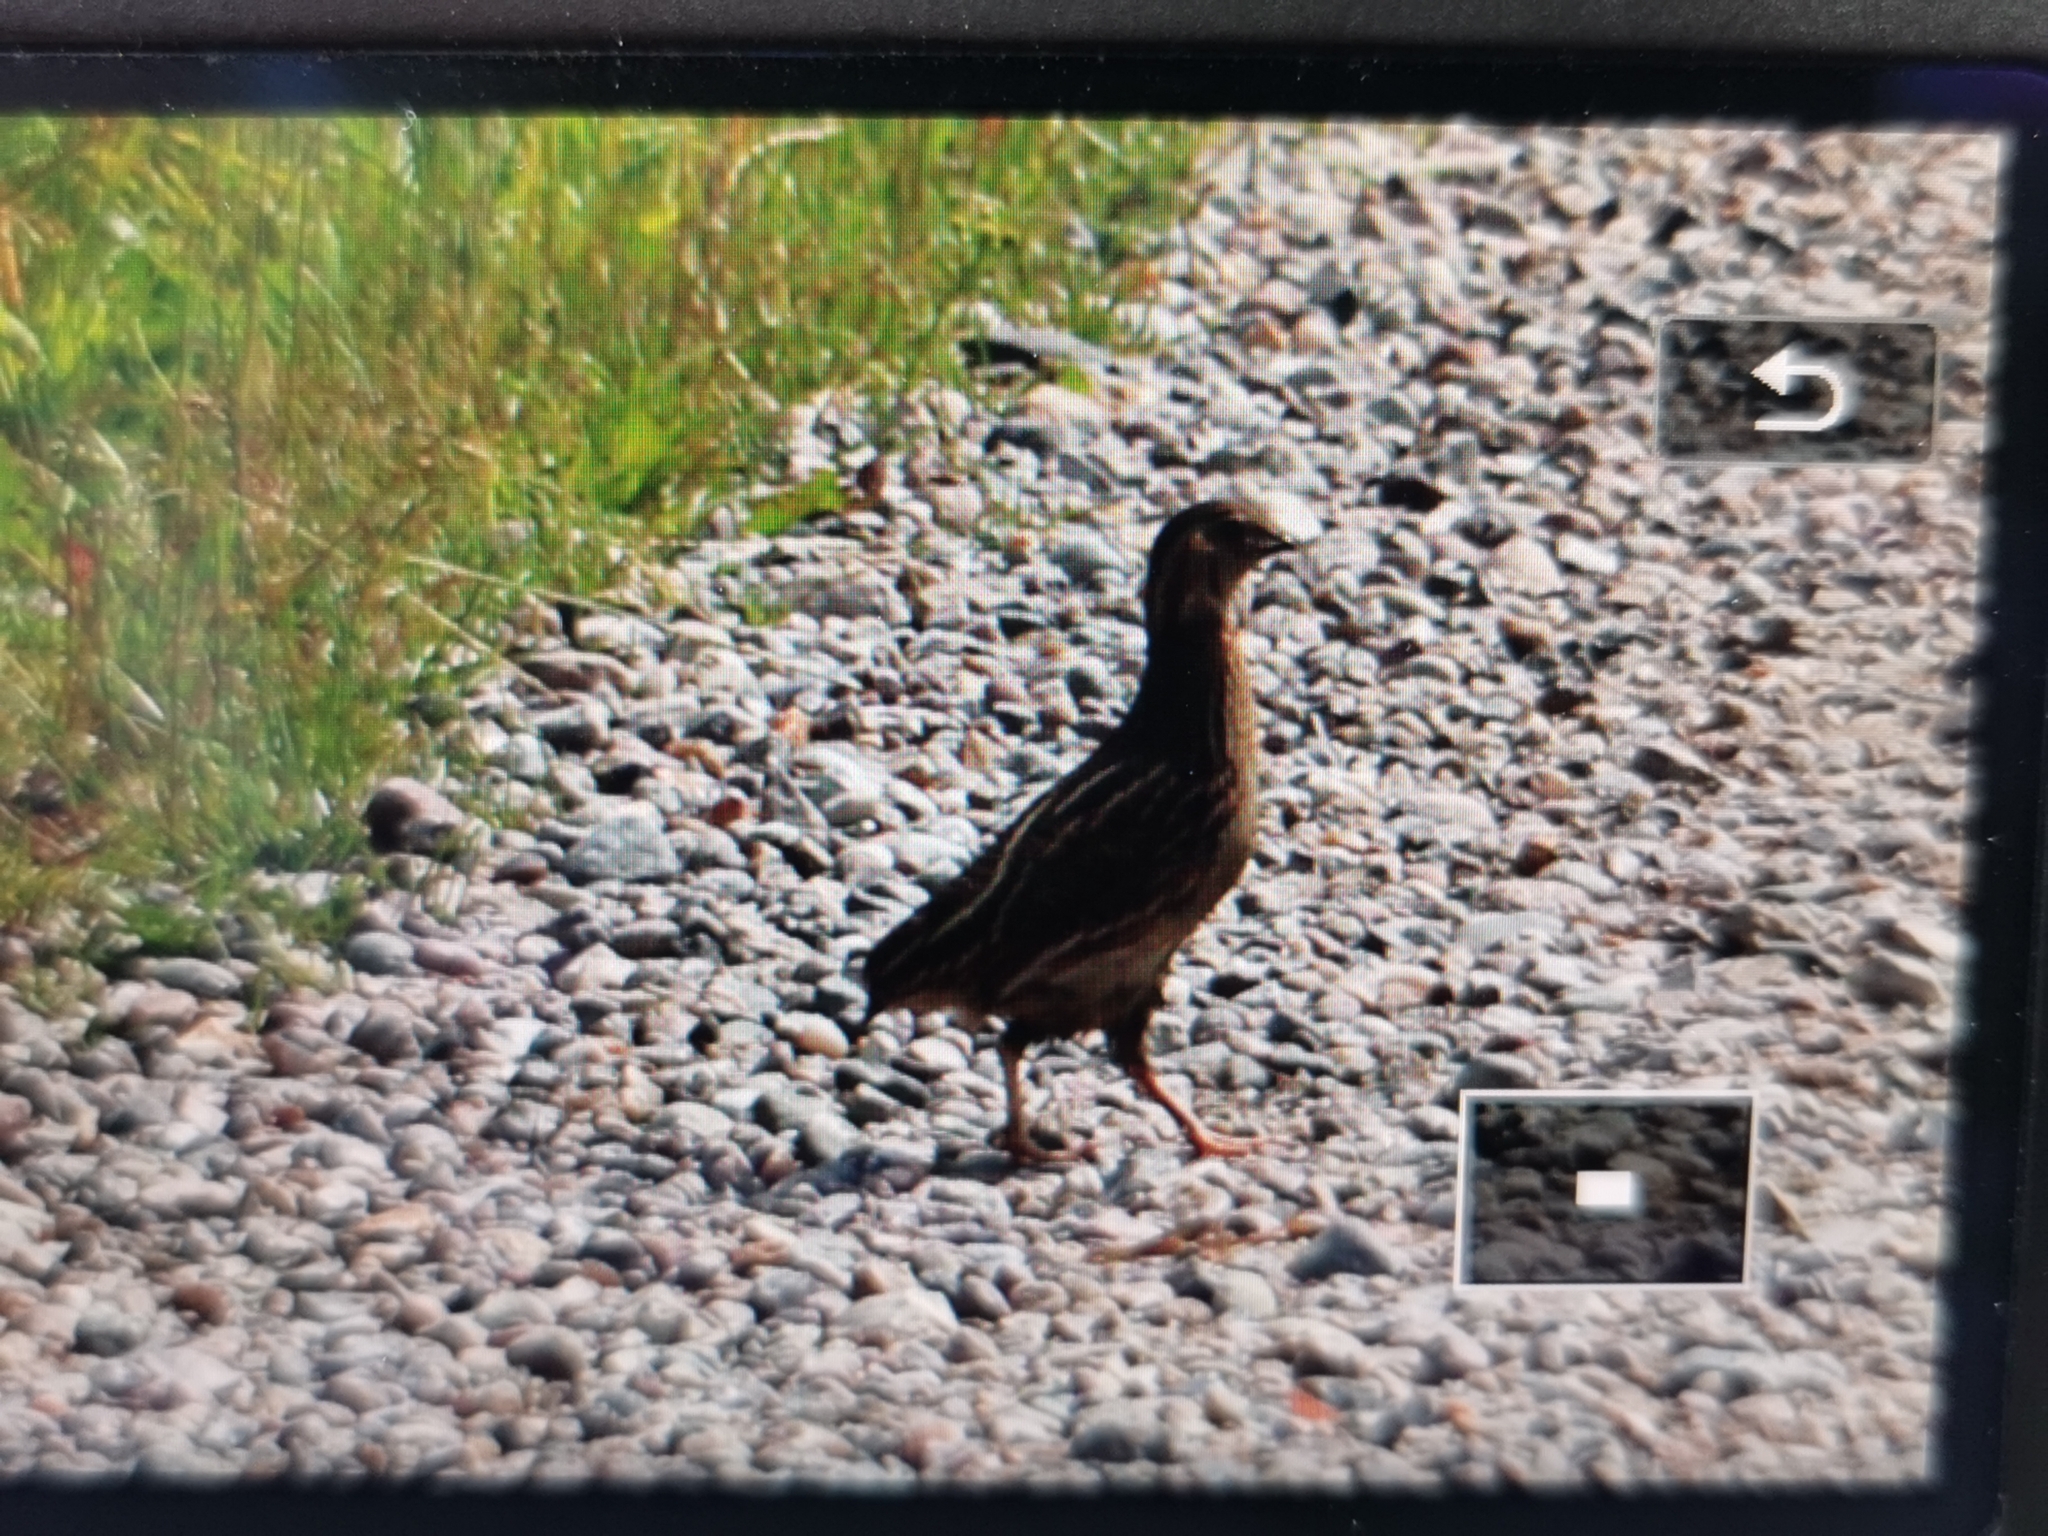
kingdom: Animalia
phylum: Chordata
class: Aves
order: Galliformes
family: Phasianidae
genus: Coturnix
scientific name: Coturnix coturnix
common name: Common quail
